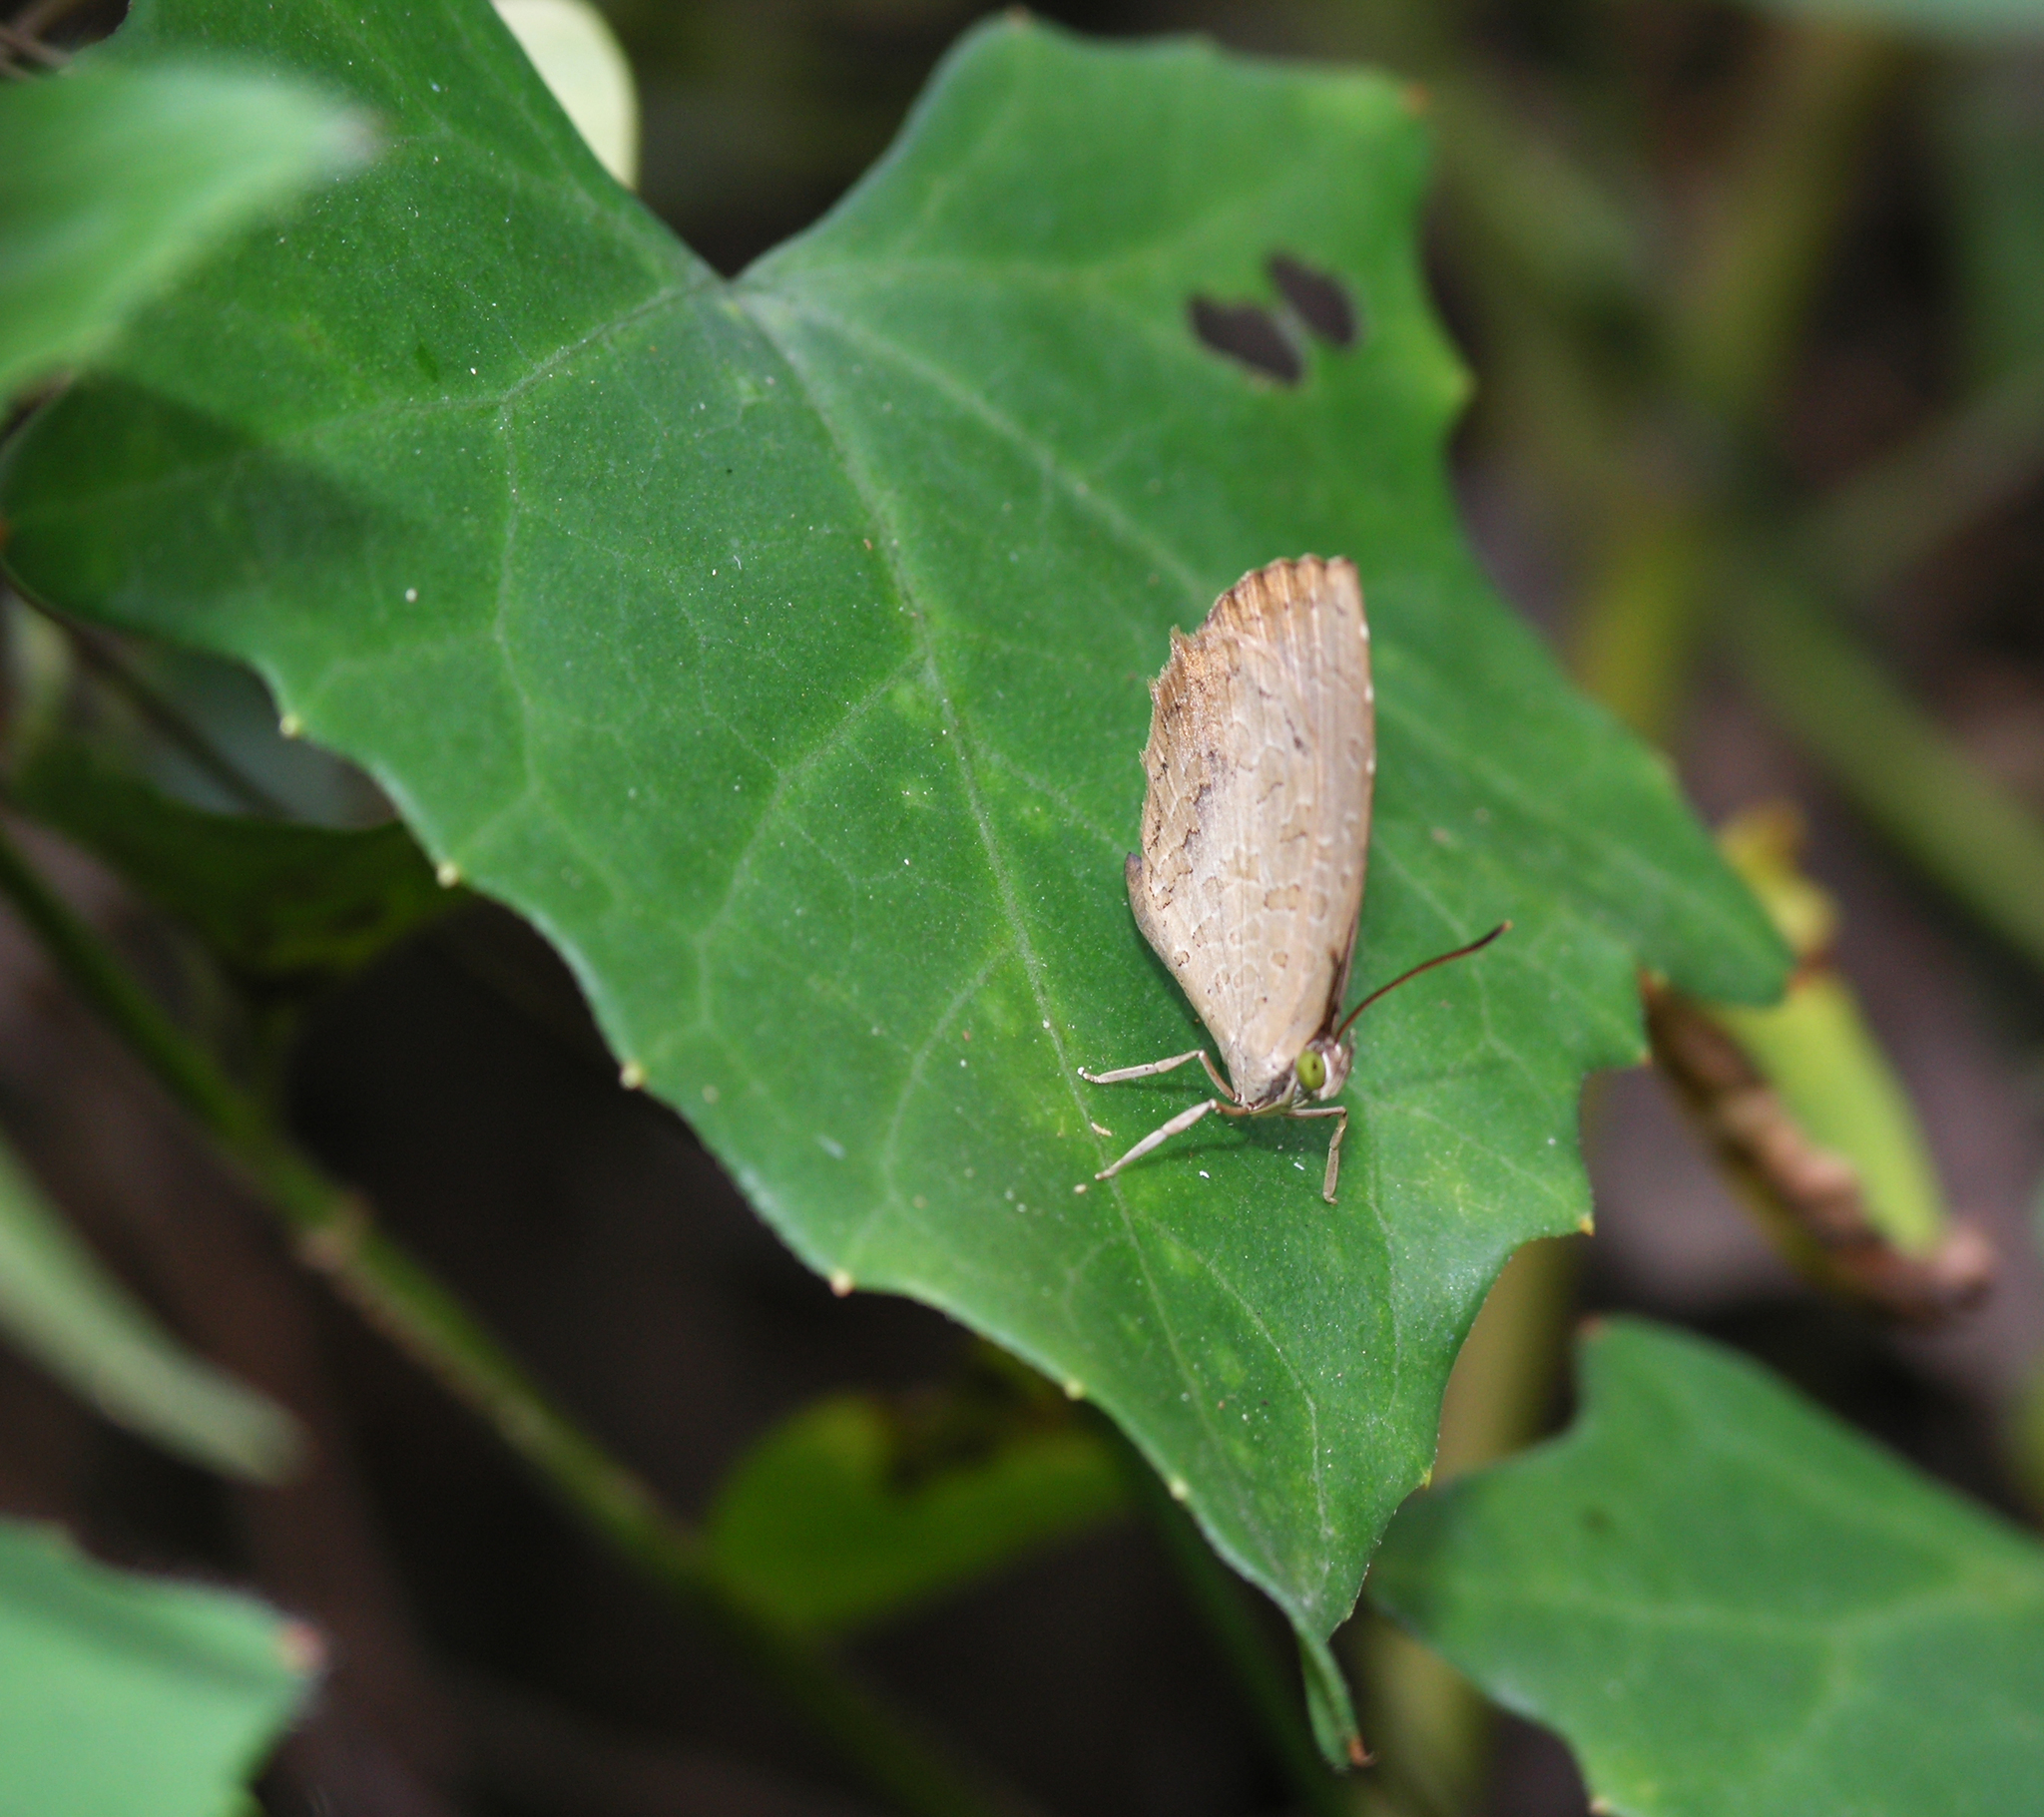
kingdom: Animalia
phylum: Arthropoda
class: Insecta
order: Lepidoptera
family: Lycaenidae
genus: Miletus
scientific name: Miletus chinensis
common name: Common brownie
